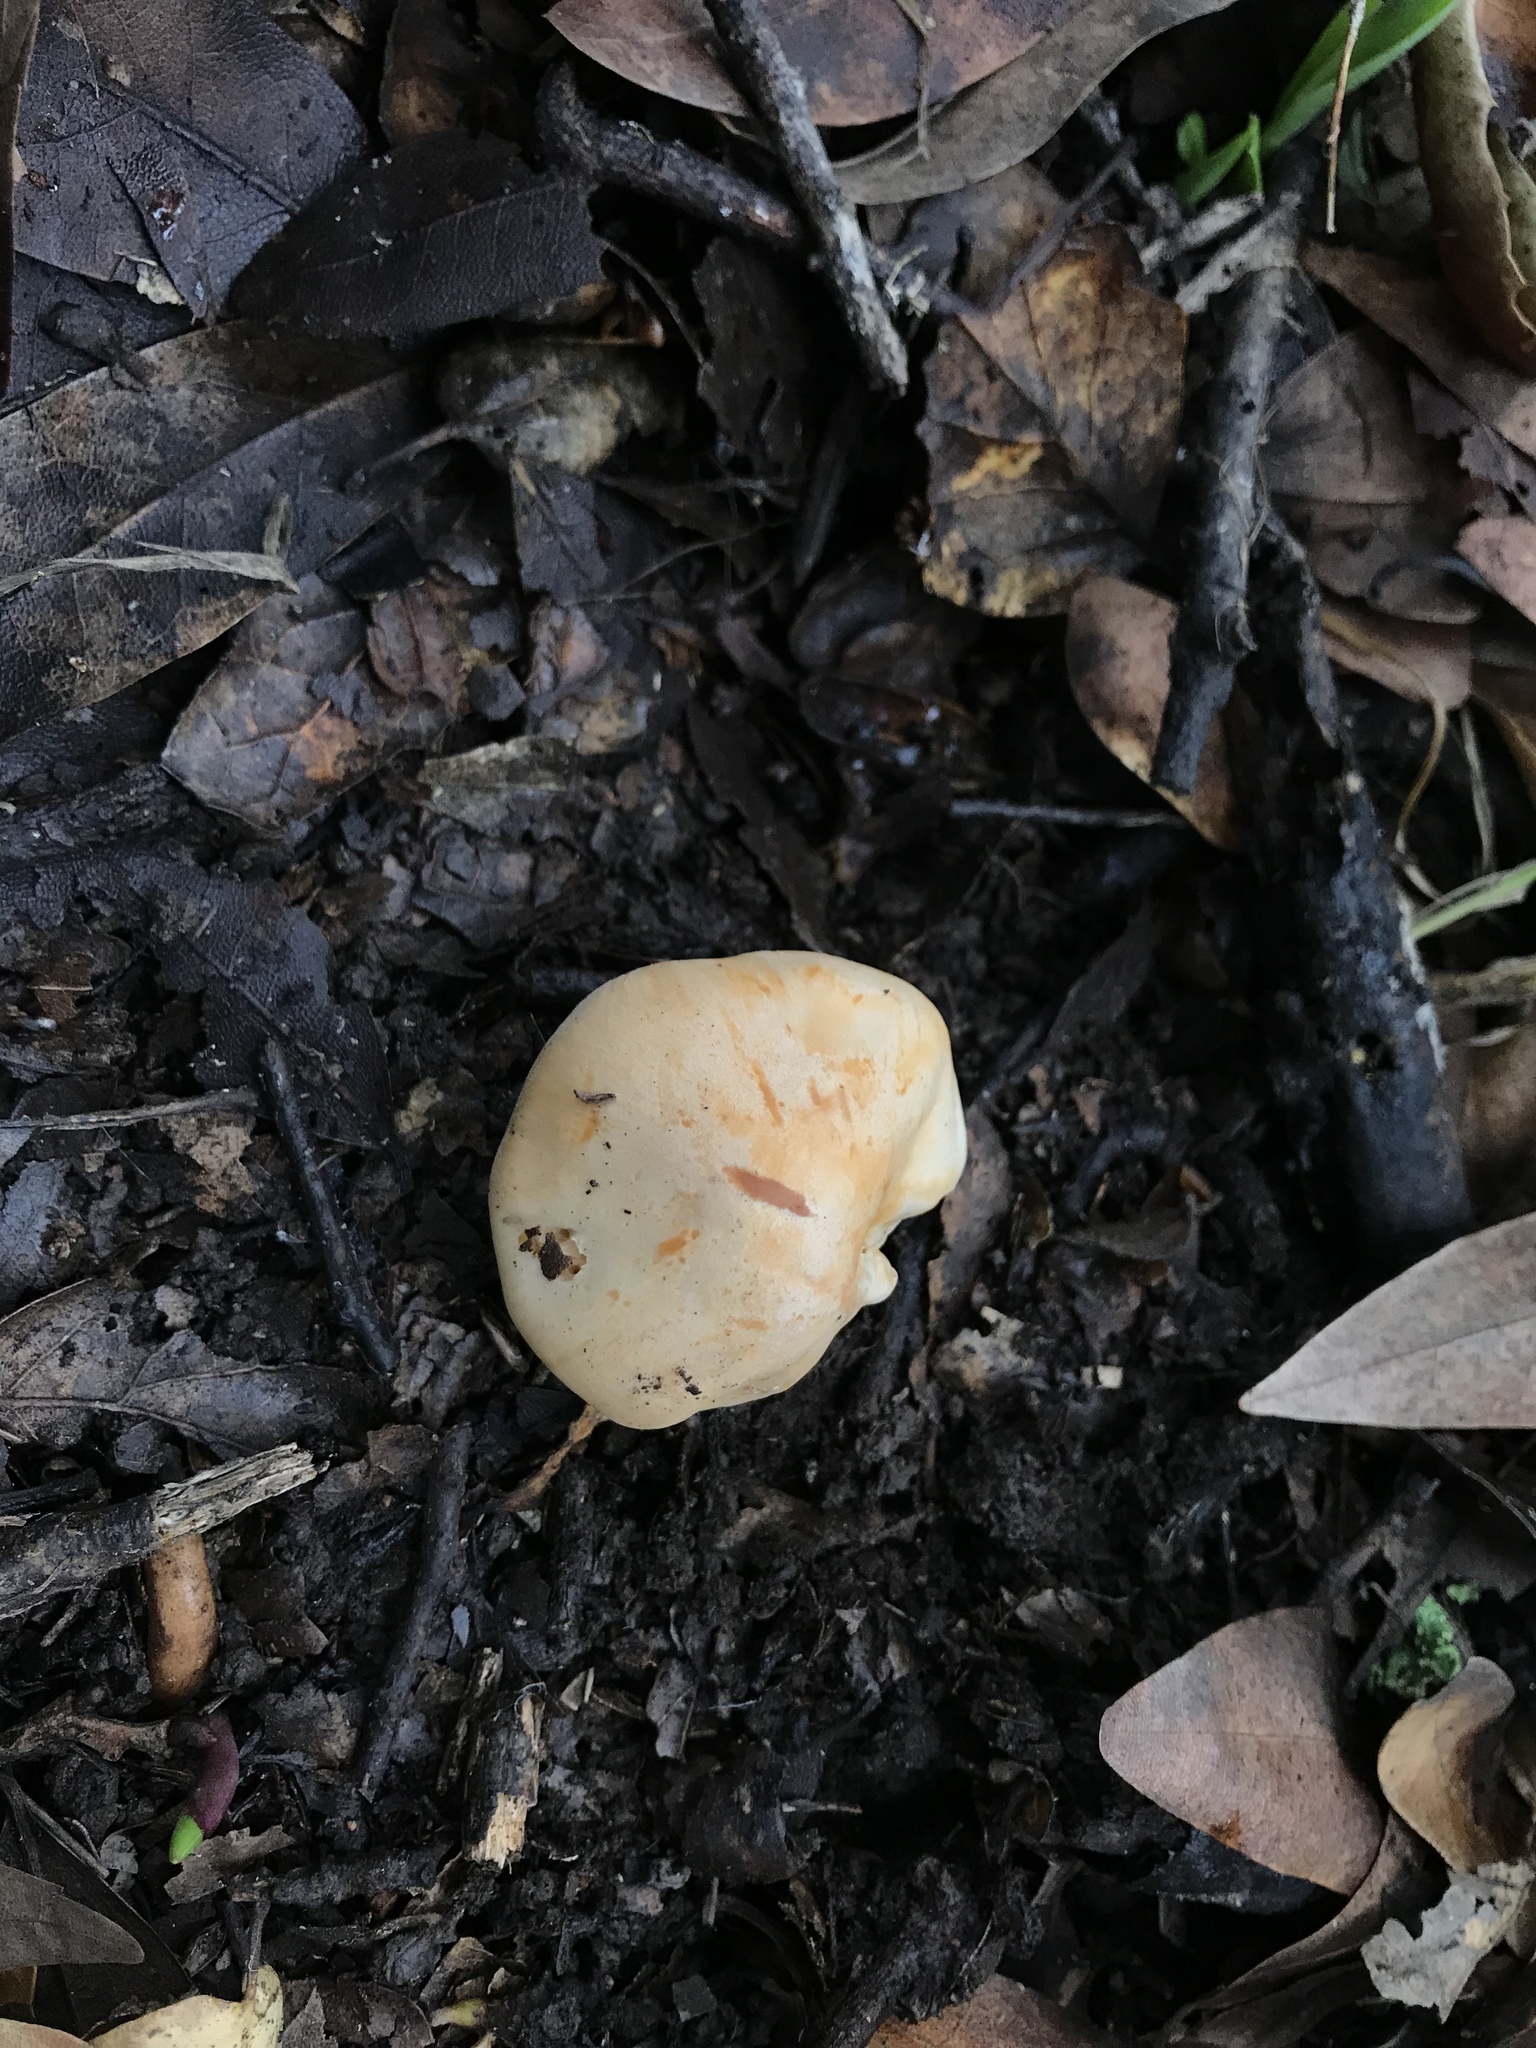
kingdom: Fungi
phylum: Basidiomycota
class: Agaricomycetes
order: Agaricales
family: Hygrophoraceae
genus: Cuphophyllus
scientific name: Cuphophyllus pratensis
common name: Meadow waxcap
